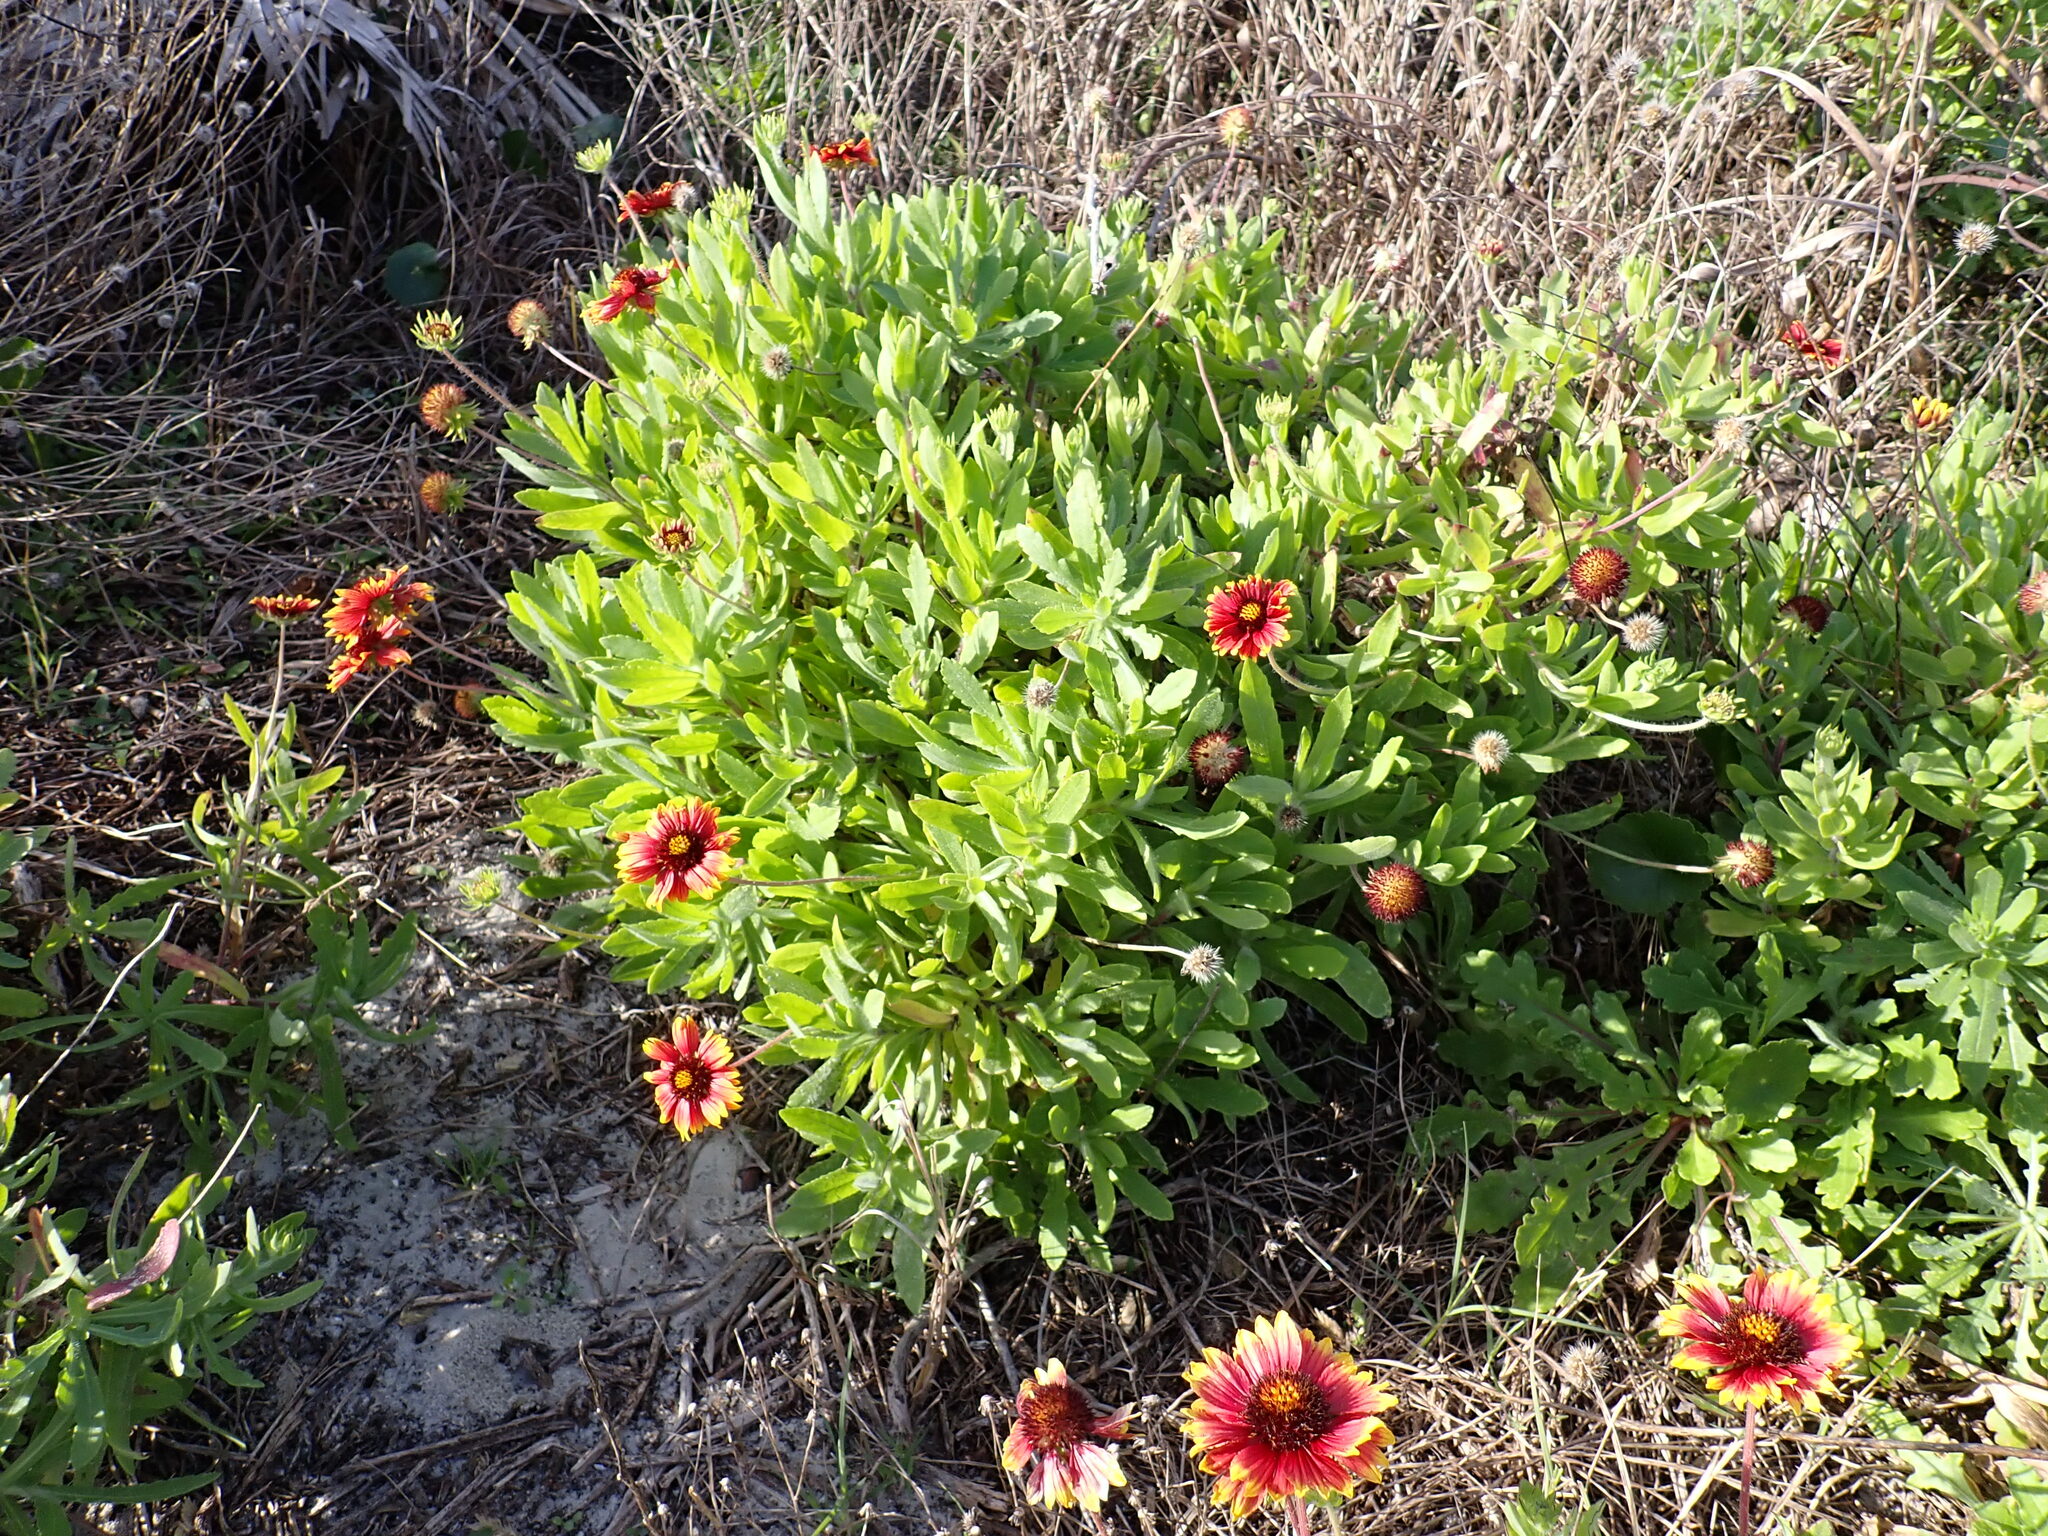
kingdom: Plantae
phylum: Tracheophyta
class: Magnoliopsida
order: Asterales
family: Asteraceae
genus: Gaillardia
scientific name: Gaillardia pulchella
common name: Firewheel
